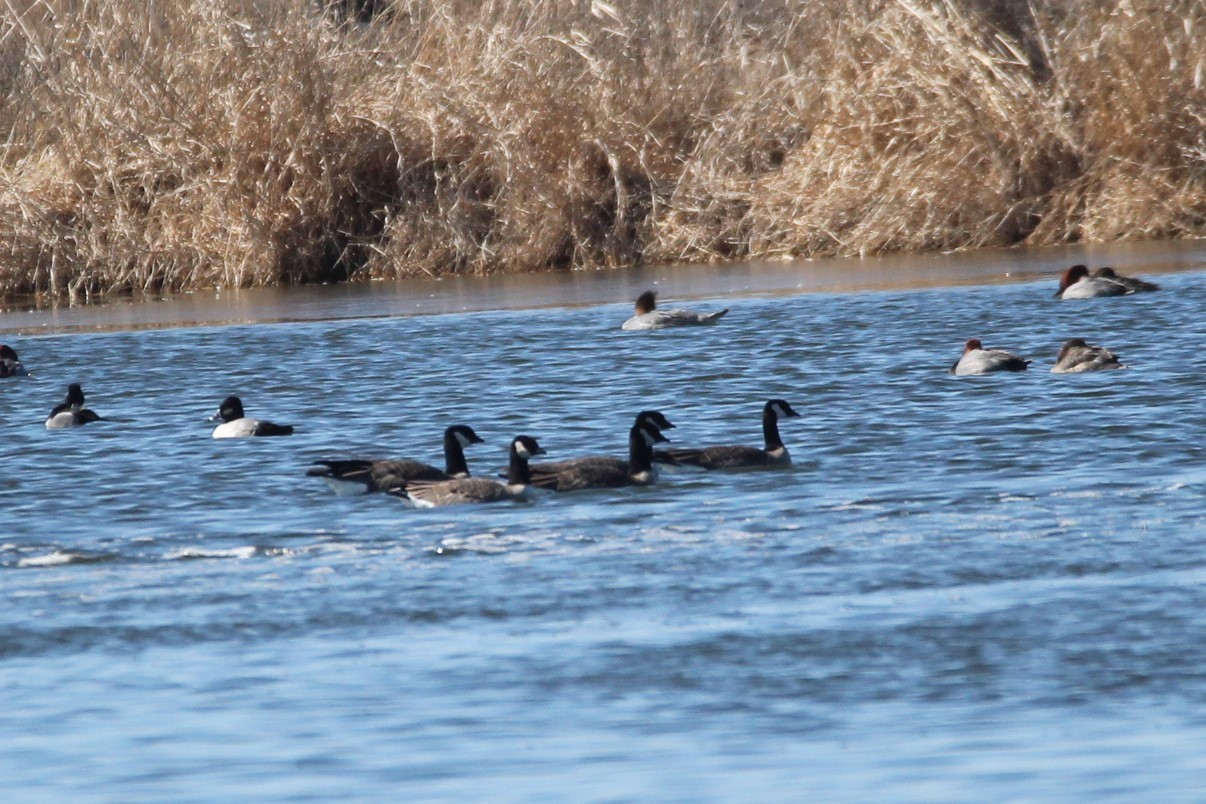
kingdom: Animalia
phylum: Chordata
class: Aves
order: Anseriformes
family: Anatidae
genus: Branta
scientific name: Branta hutchinsii
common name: Cackling goose
